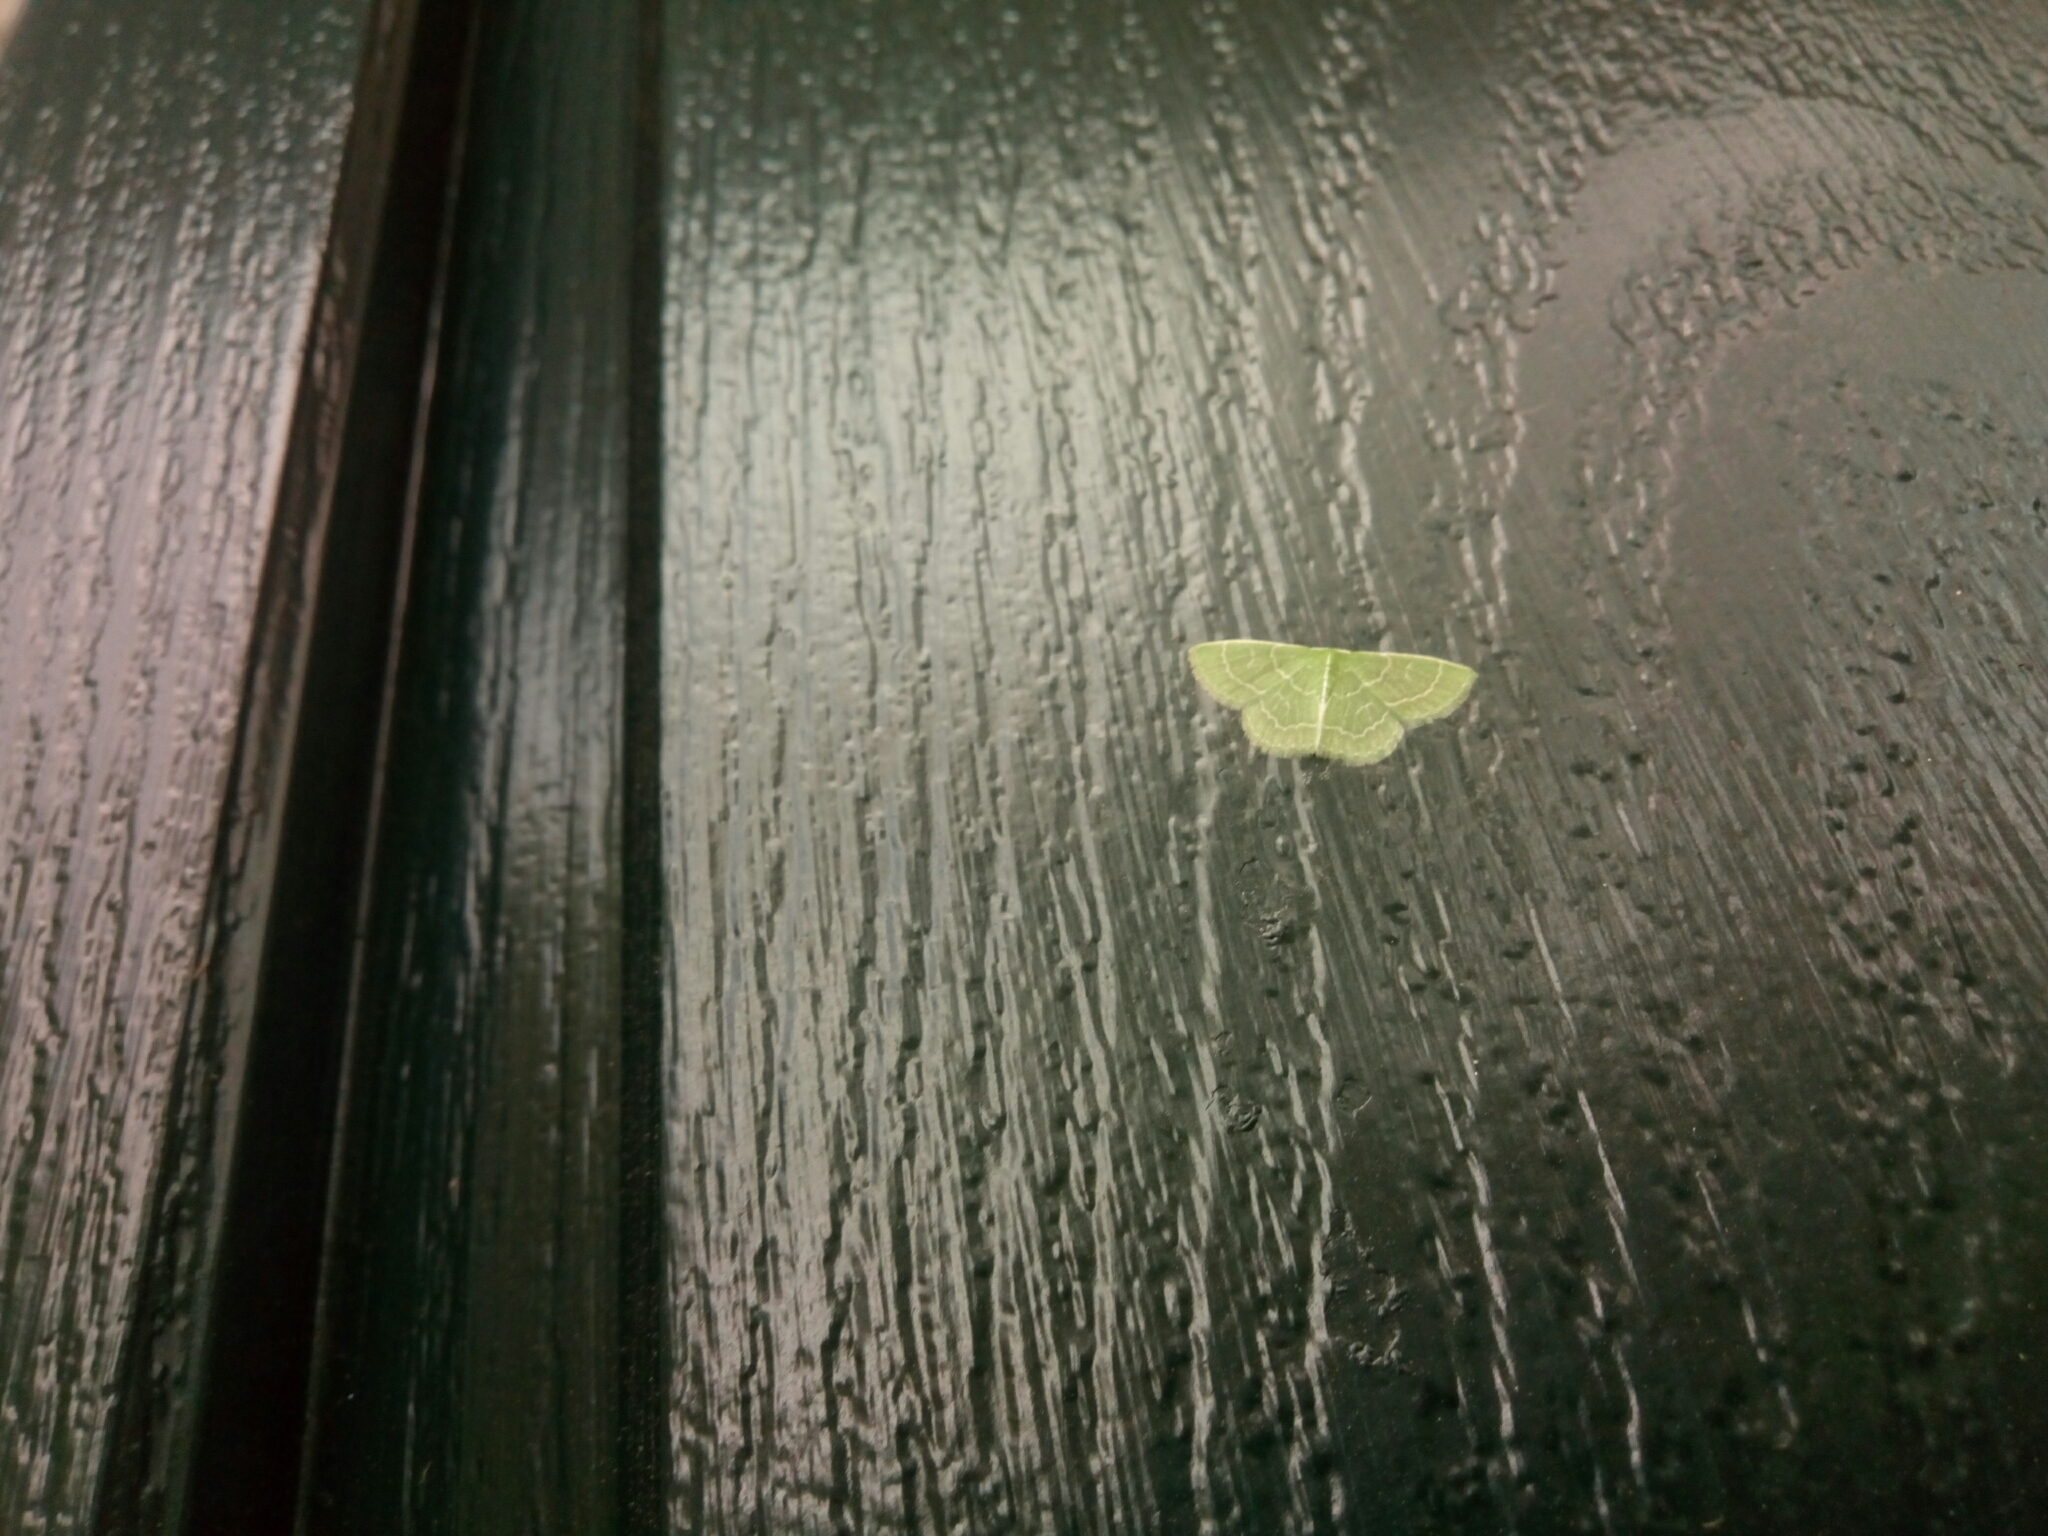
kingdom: Animalia
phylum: Arthropoda
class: Insecta
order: Lepidoptera
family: Geometridae
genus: Synchlora
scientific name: Synchlora frondaria
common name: Southern emerald
